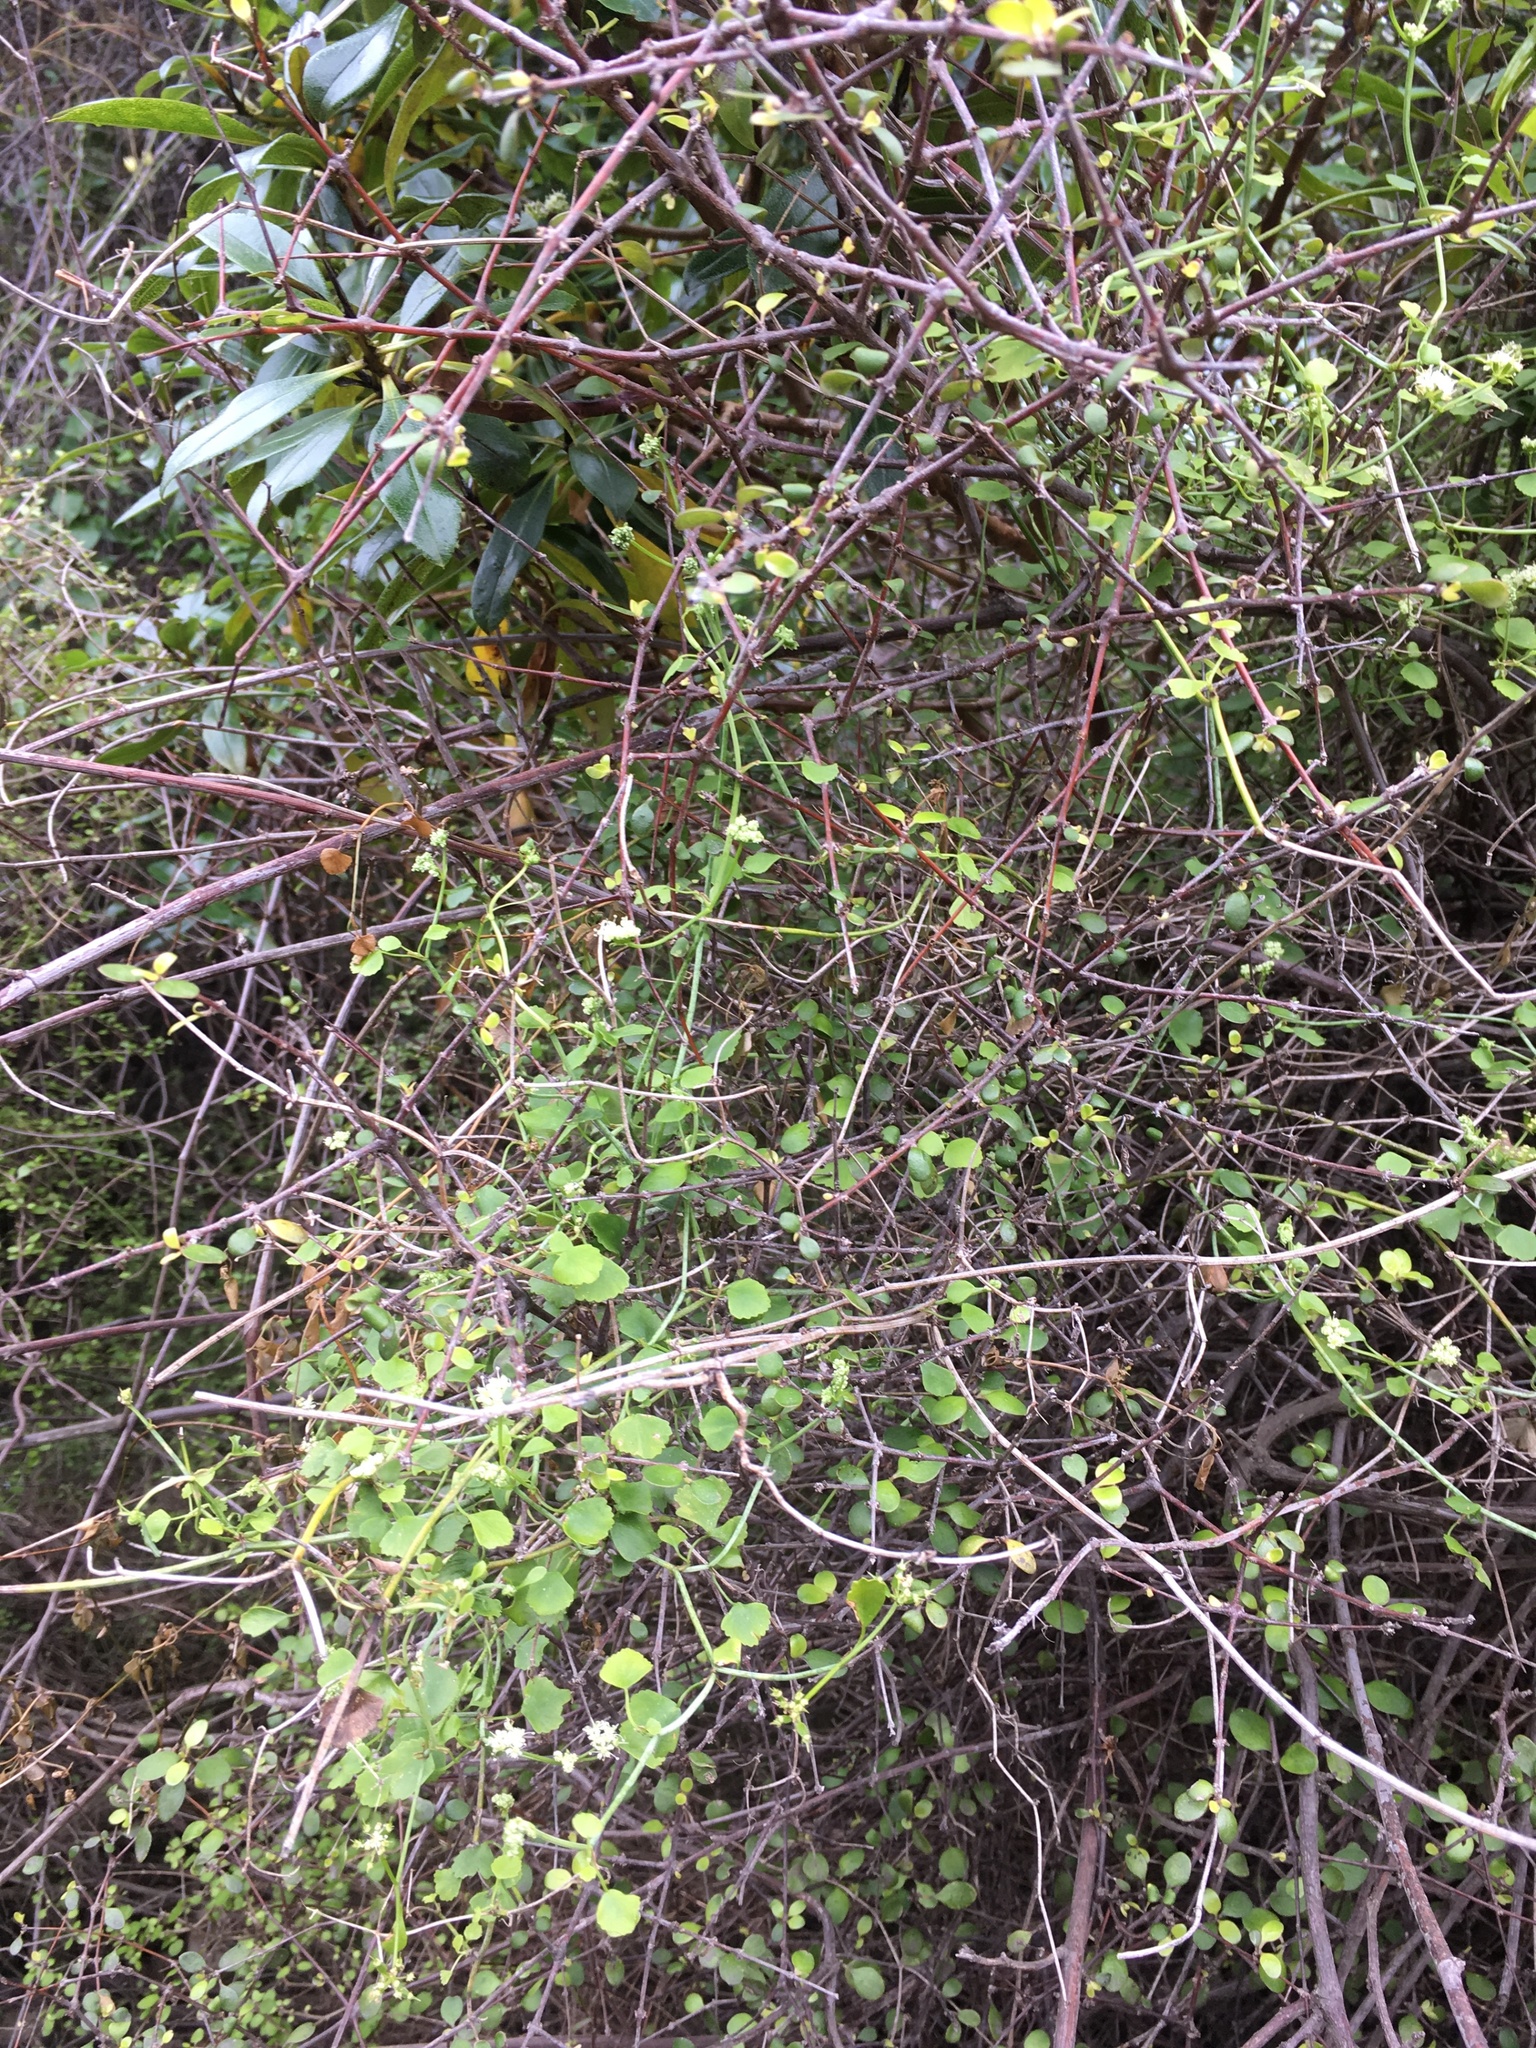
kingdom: Plantae
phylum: Tracheophyta
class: Magnoliopsida
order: Apiales
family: Apiaceae
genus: Scandia
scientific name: Scandia geniculata
